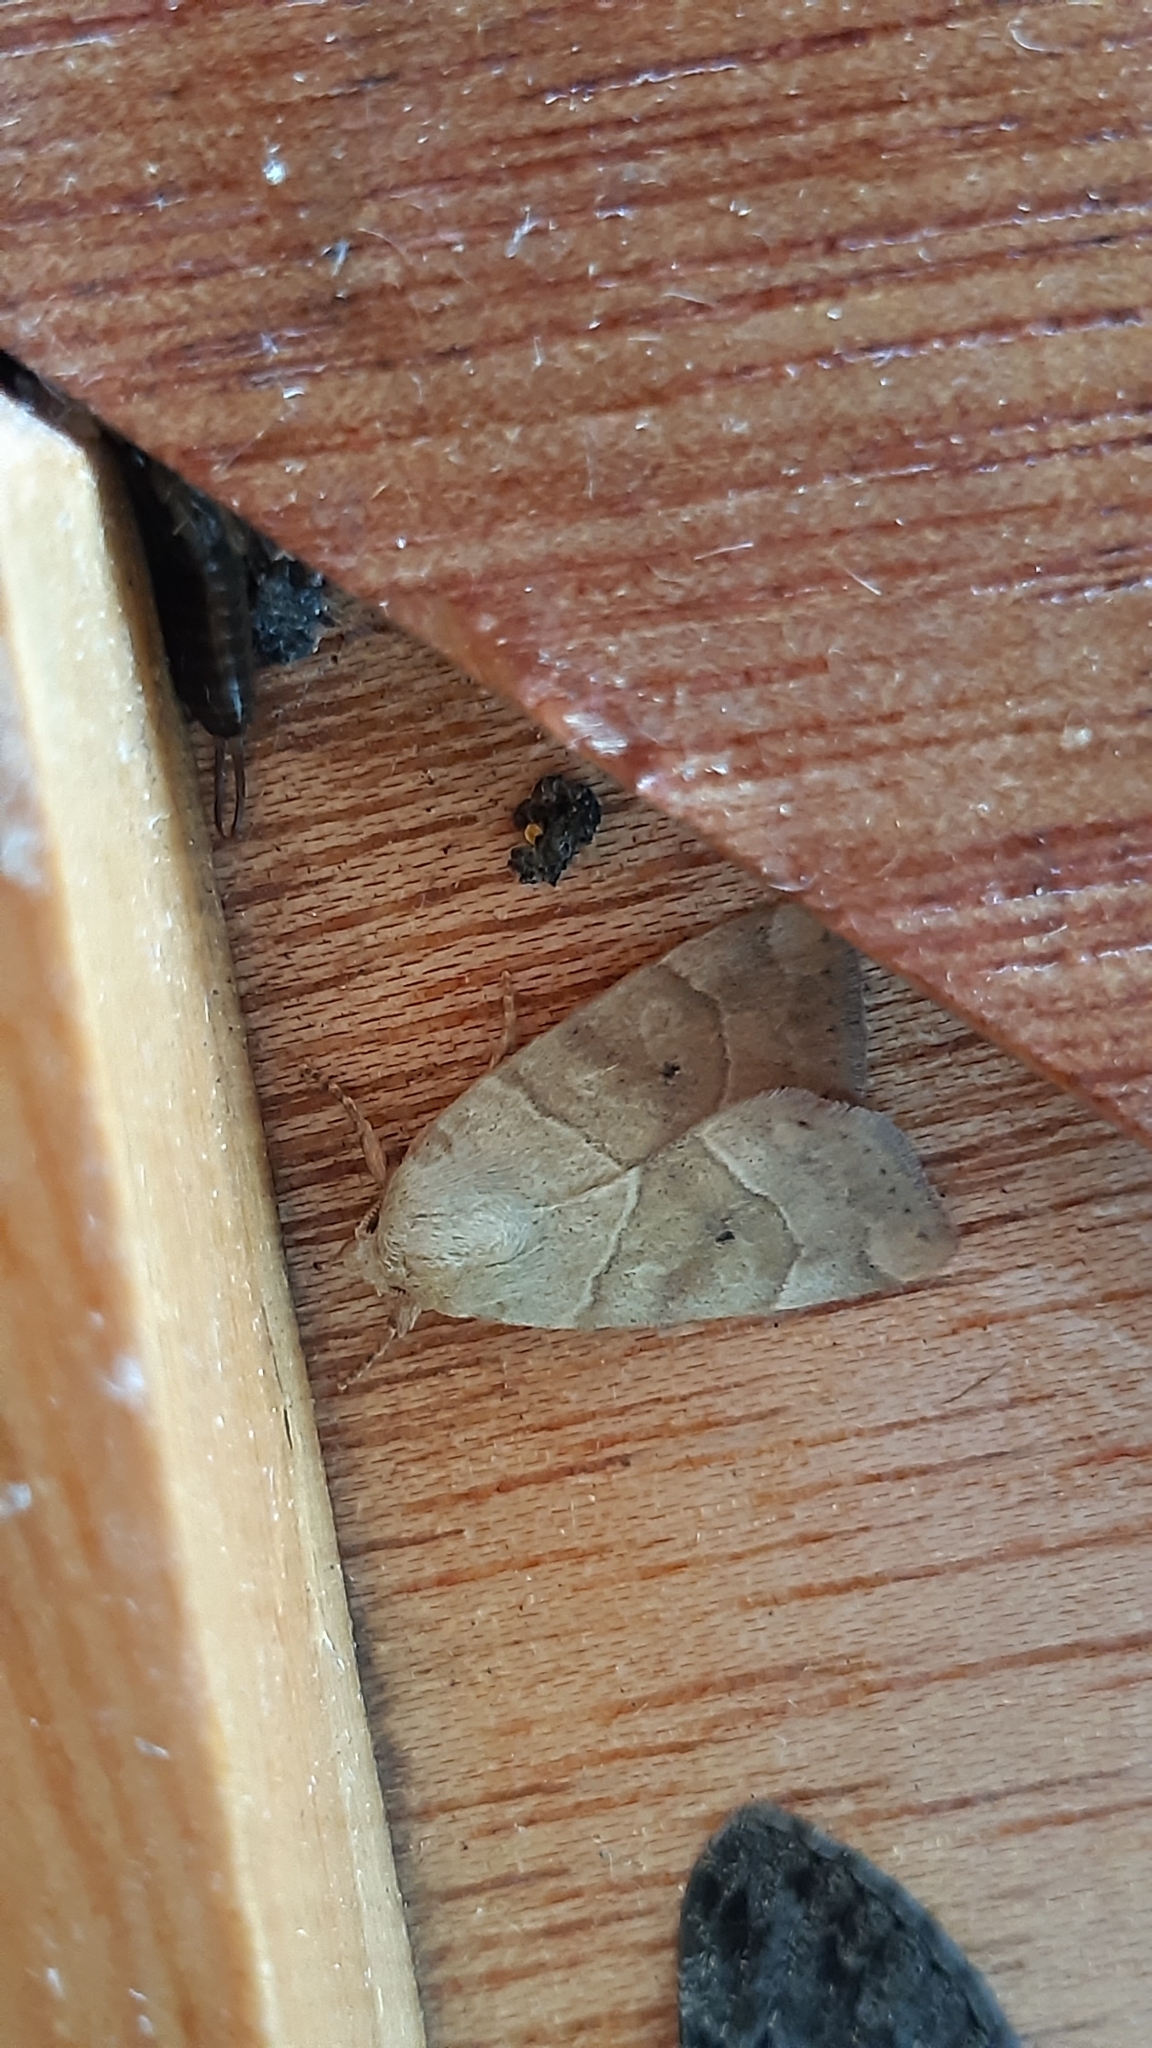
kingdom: Animalia
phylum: Arthropoda
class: Insecta
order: Lepidoptera
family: Noctuidae
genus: Cosmia
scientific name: Cosmia trapezina
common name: Dun-bar
